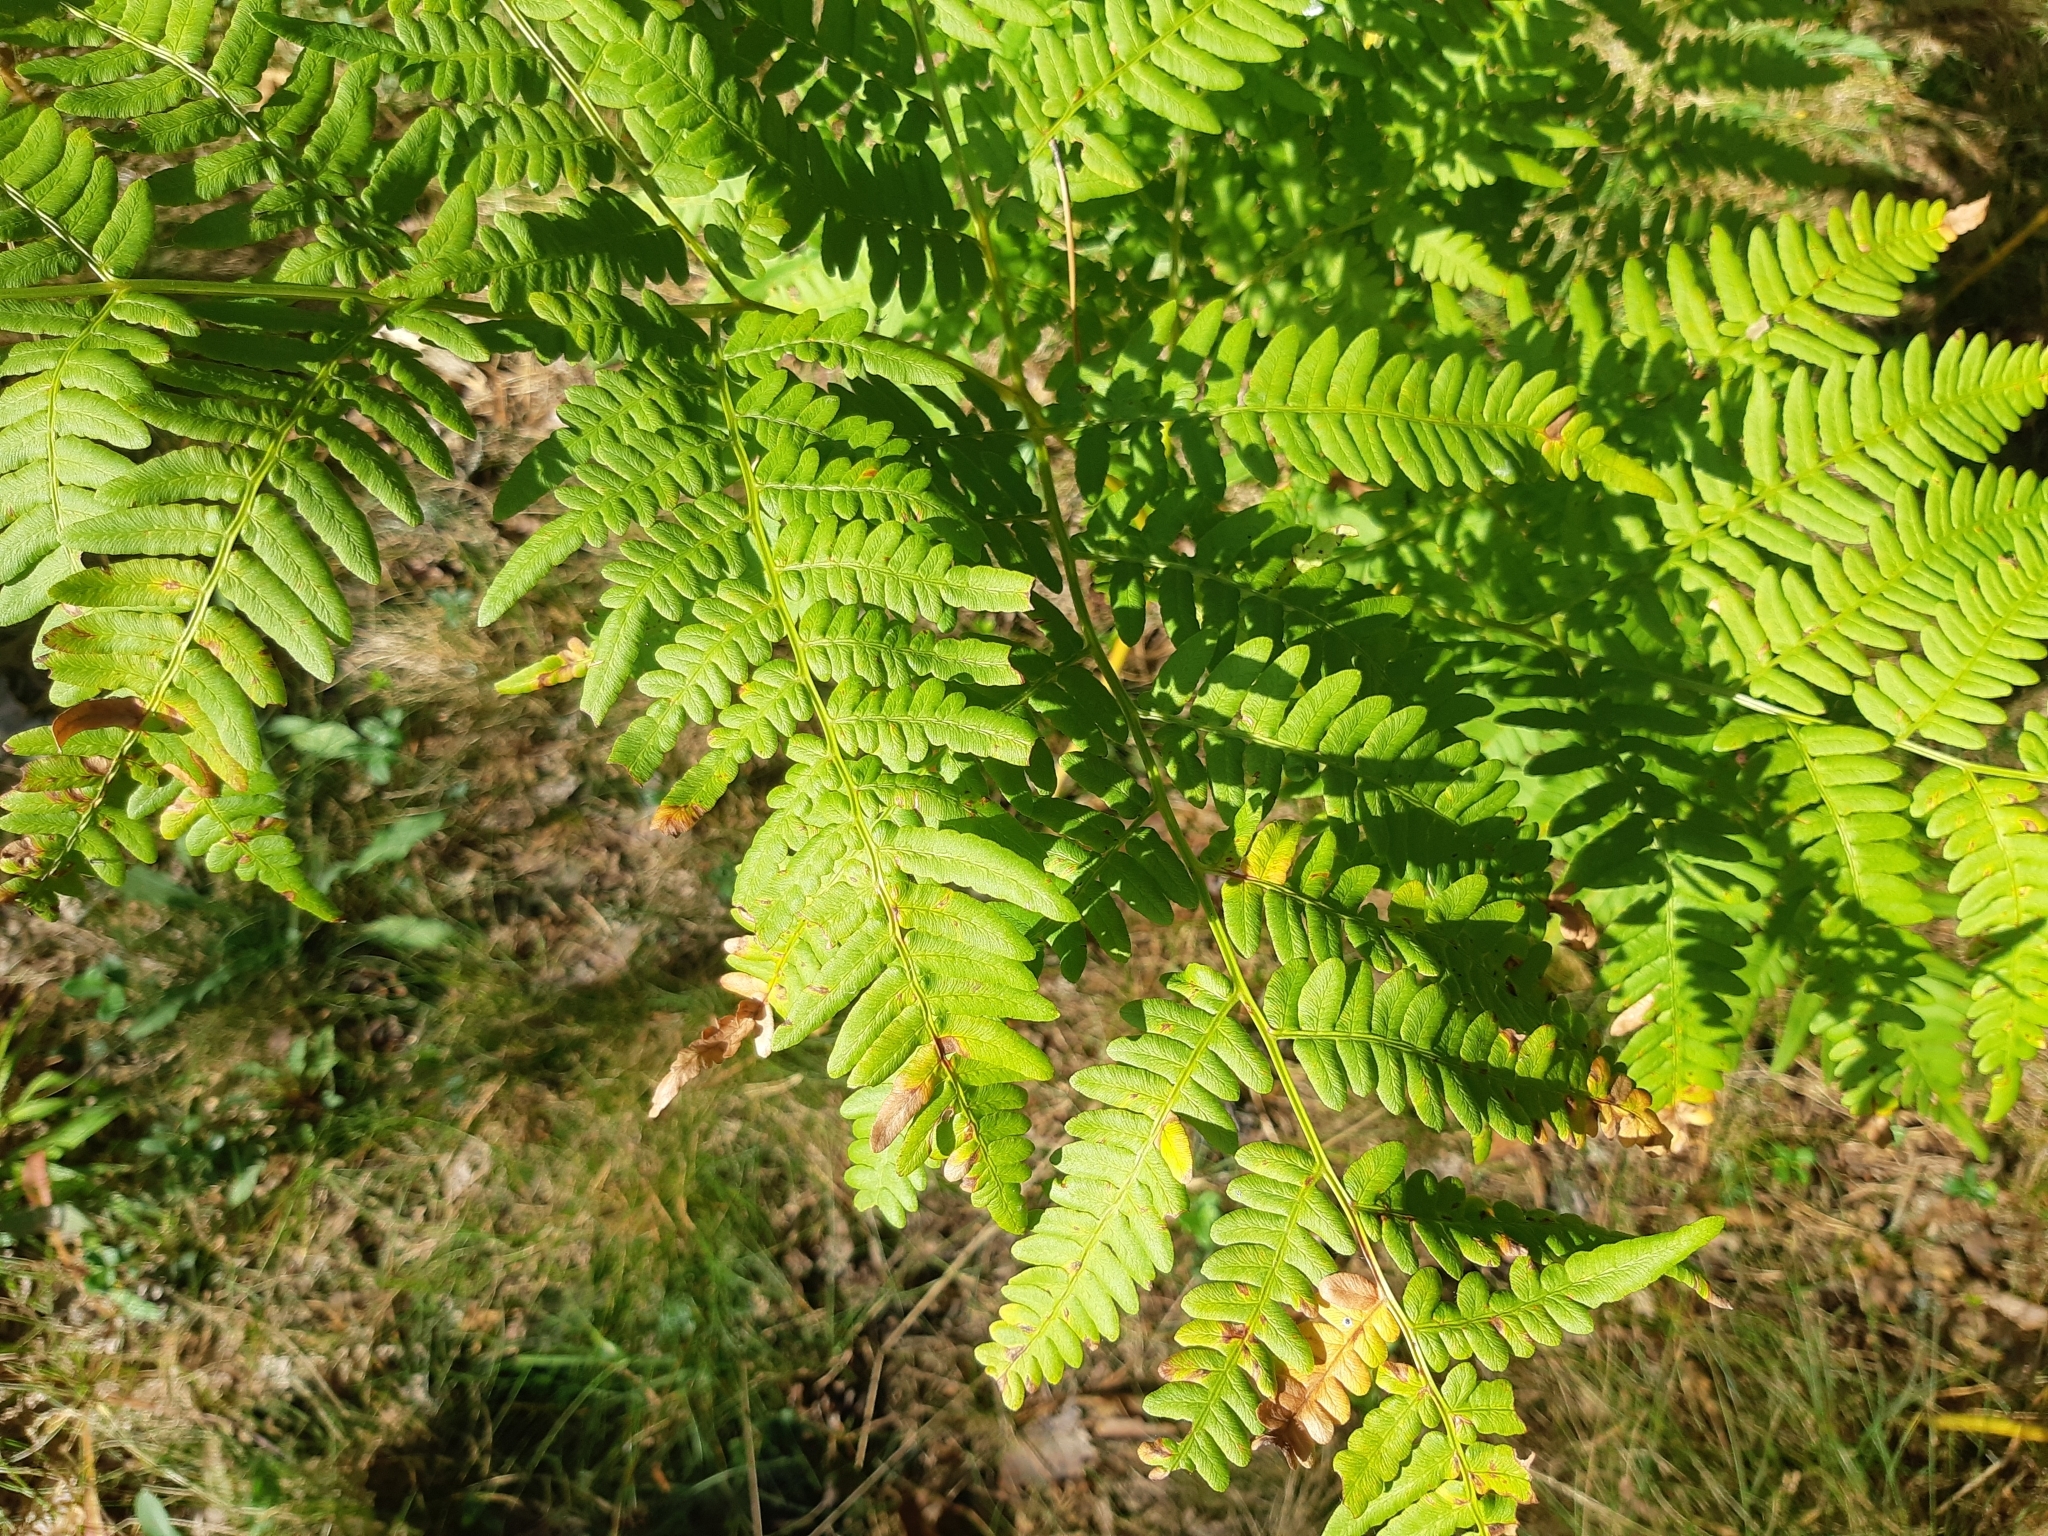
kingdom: Plantae
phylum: Tracheophyta
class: Polypodiopsida
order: Polypodiales
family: Dennstaedtiaceae
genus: Pteridium
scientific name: Pteridium aquilinum
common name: Bracken
